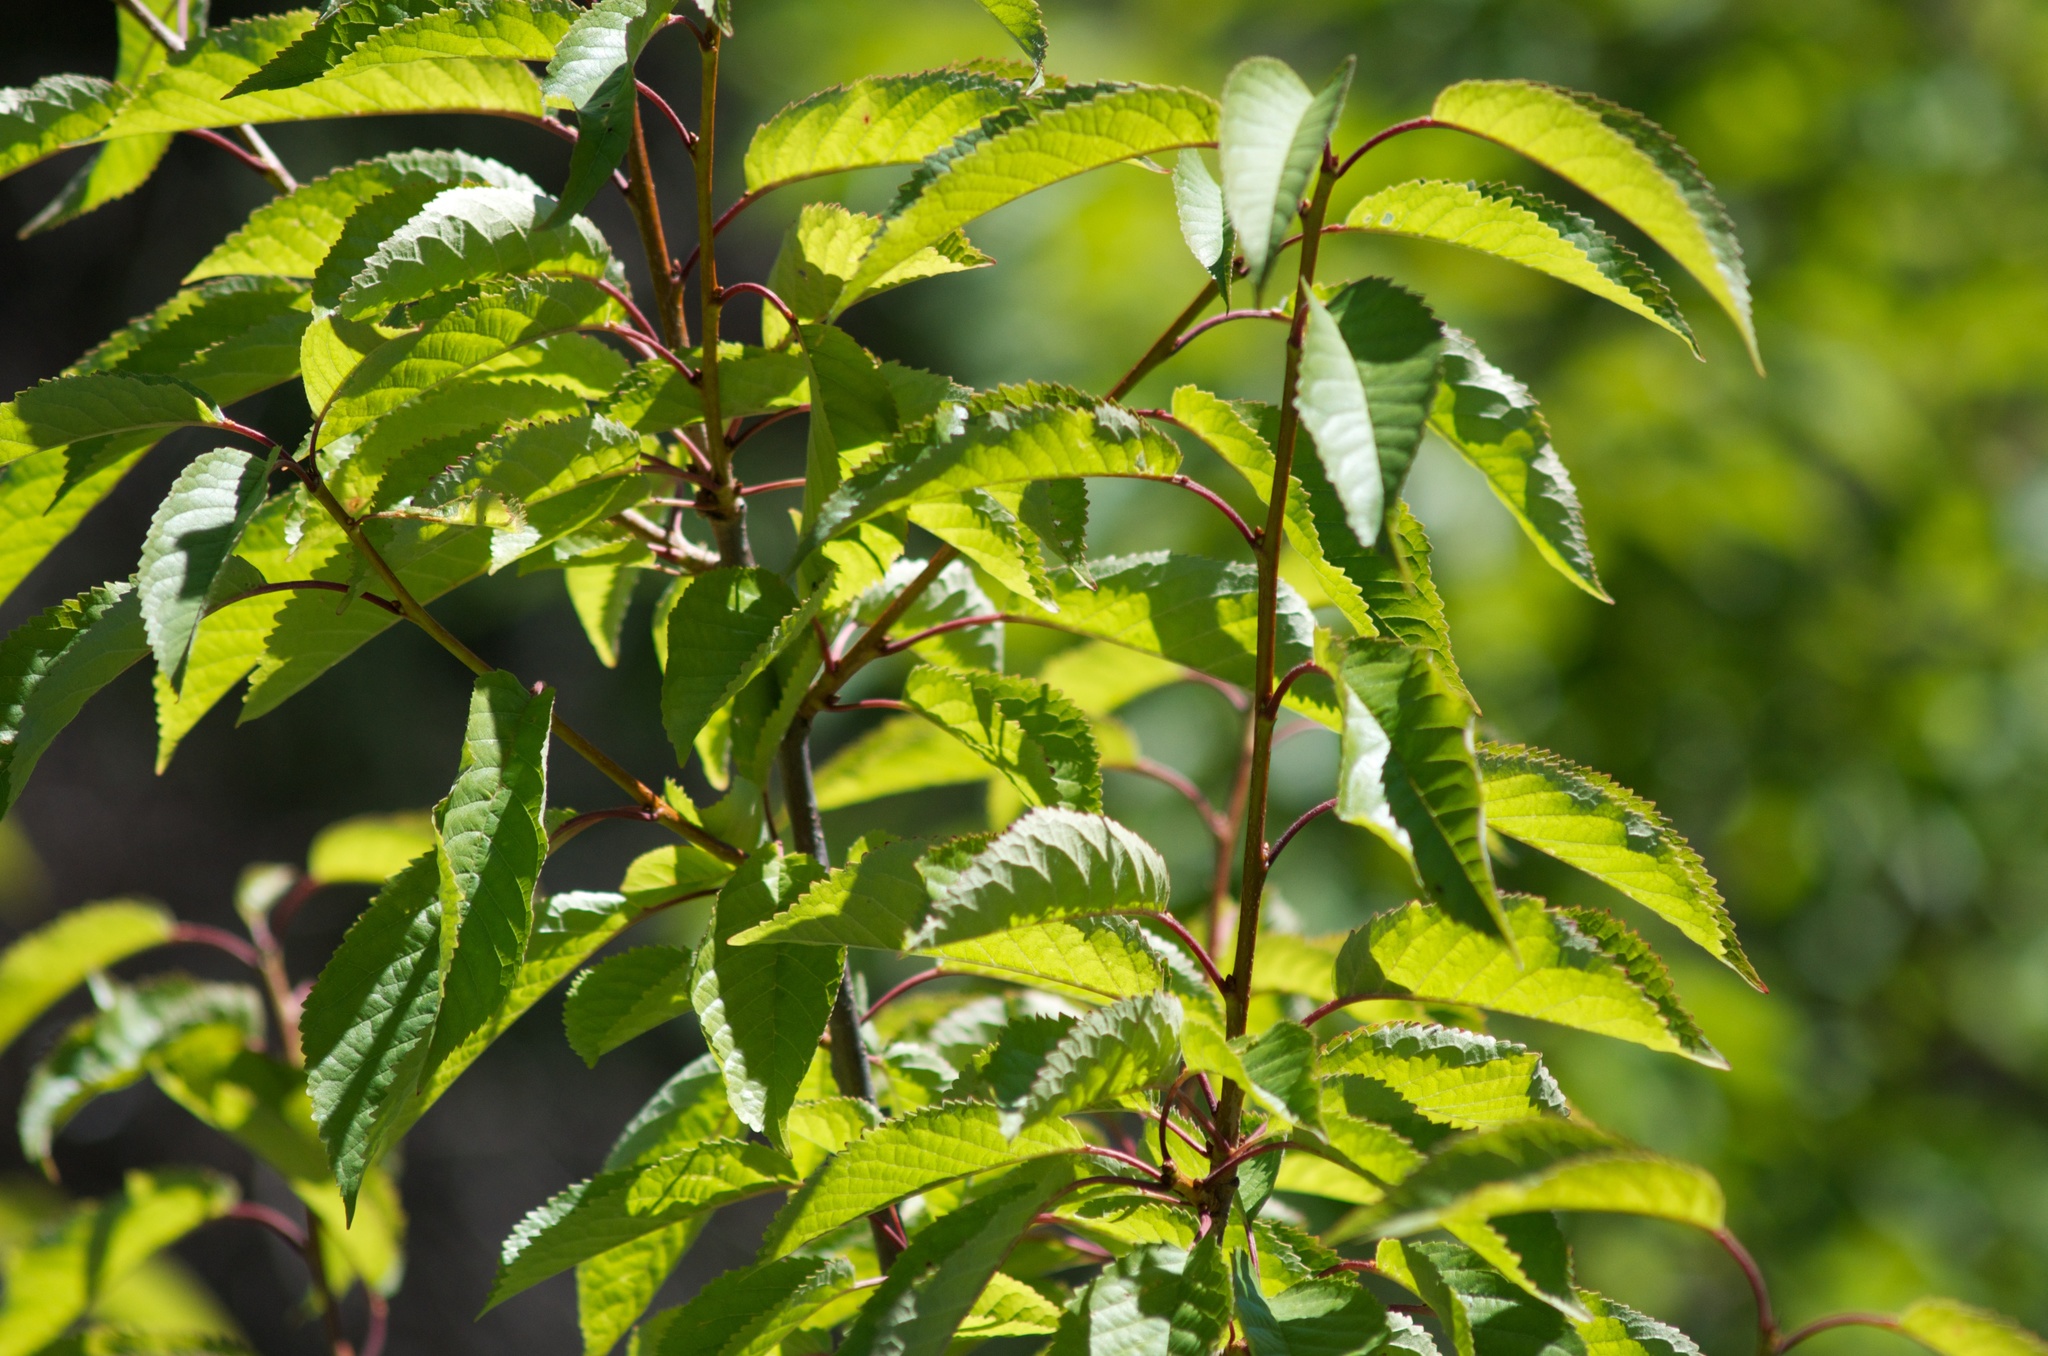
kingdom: Plantae
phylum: Tracheophyta
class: Magnoliopsida
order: Rosales
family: Rosaceae
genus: Prunus
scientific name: Prunus avium
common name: Sweet cherry
